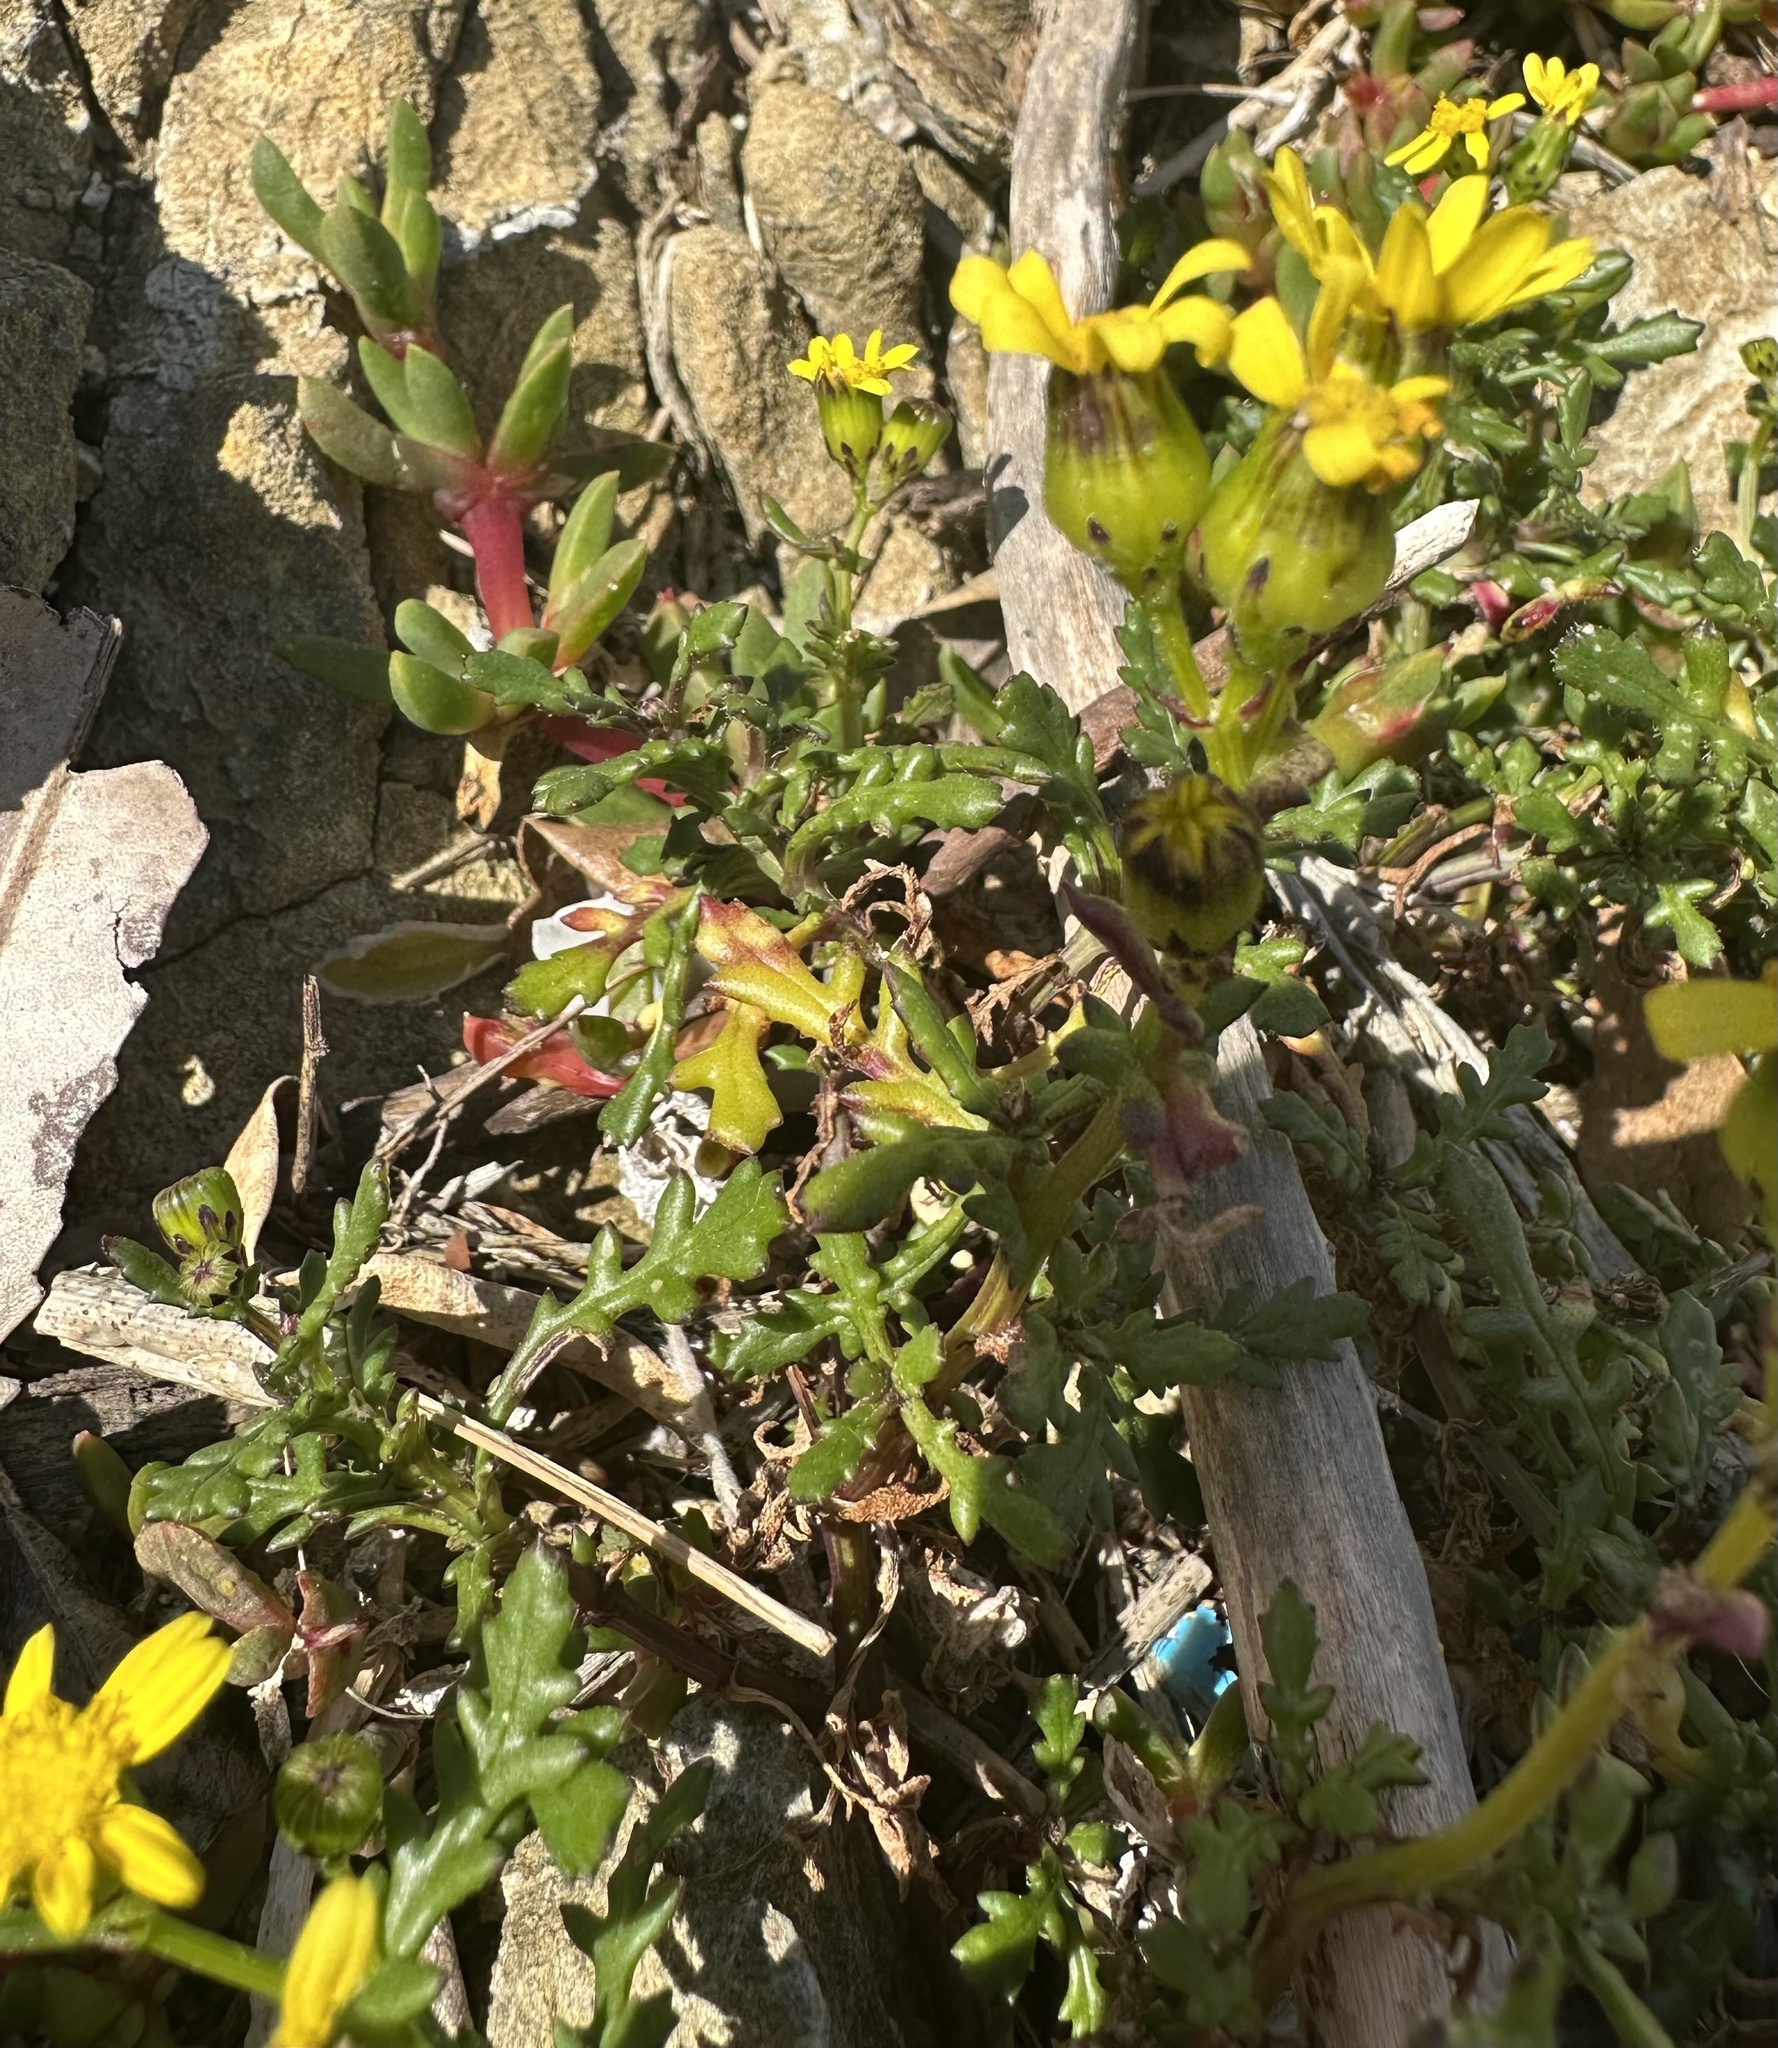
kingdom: Plantae
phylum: Tracheophyta
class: Magnoliopsida
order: Asterales
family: Asteraceae
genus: Senecio
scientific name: Senecio lautus
